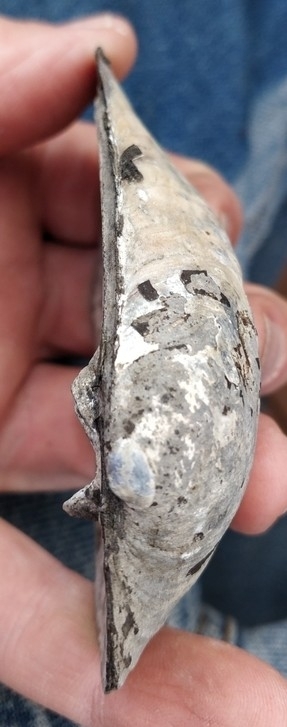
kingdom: Animalia
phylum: Mollusca
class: Bivalvia
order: Unionida
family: Unionidae
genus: Amblema
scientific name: Amblema plicata
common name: Threeridge
